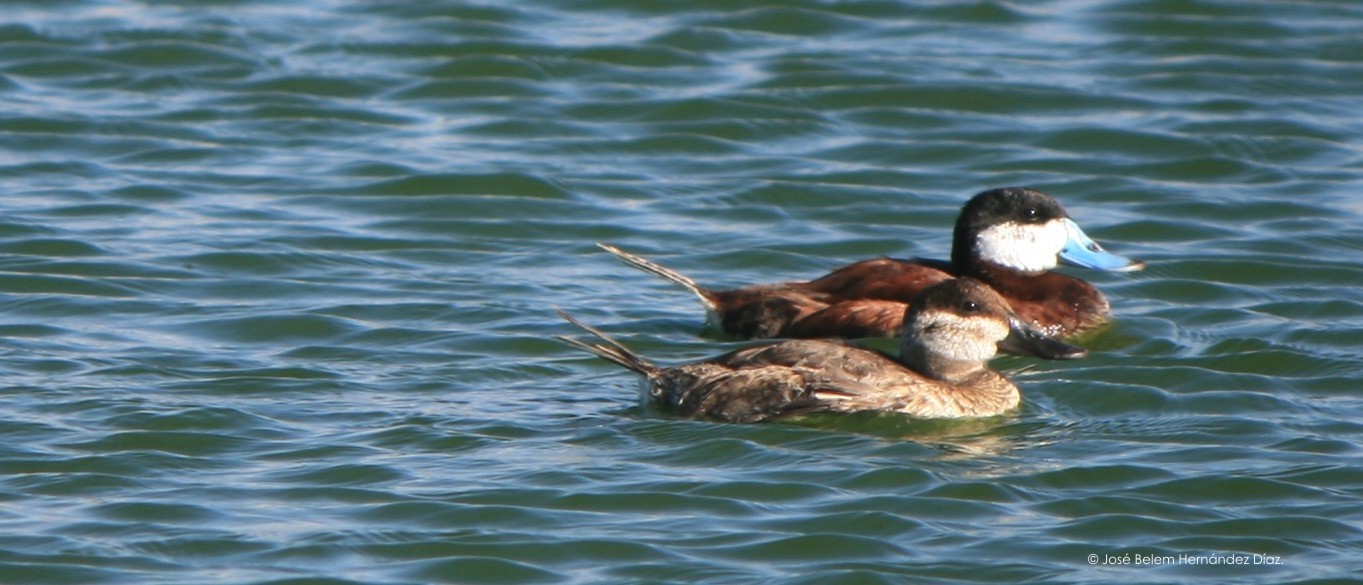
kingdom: Animalia
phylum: Chordata
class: Aves
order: Anseriformes
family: Anatidae
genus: Oxyura
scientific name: Oxyura jamaicensis
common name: Ruddy duck
